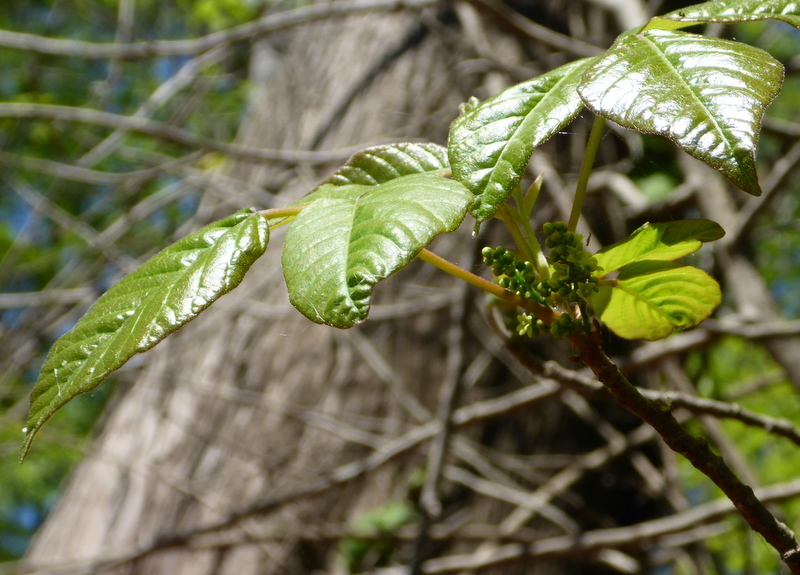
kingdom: Plantae
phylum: Tracheophyta
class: Magnoliopsida
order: Sapindales
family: Anacardiaceae
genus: Toxicodendron
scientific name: Toxicodendron radicans
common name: Poison ivy
